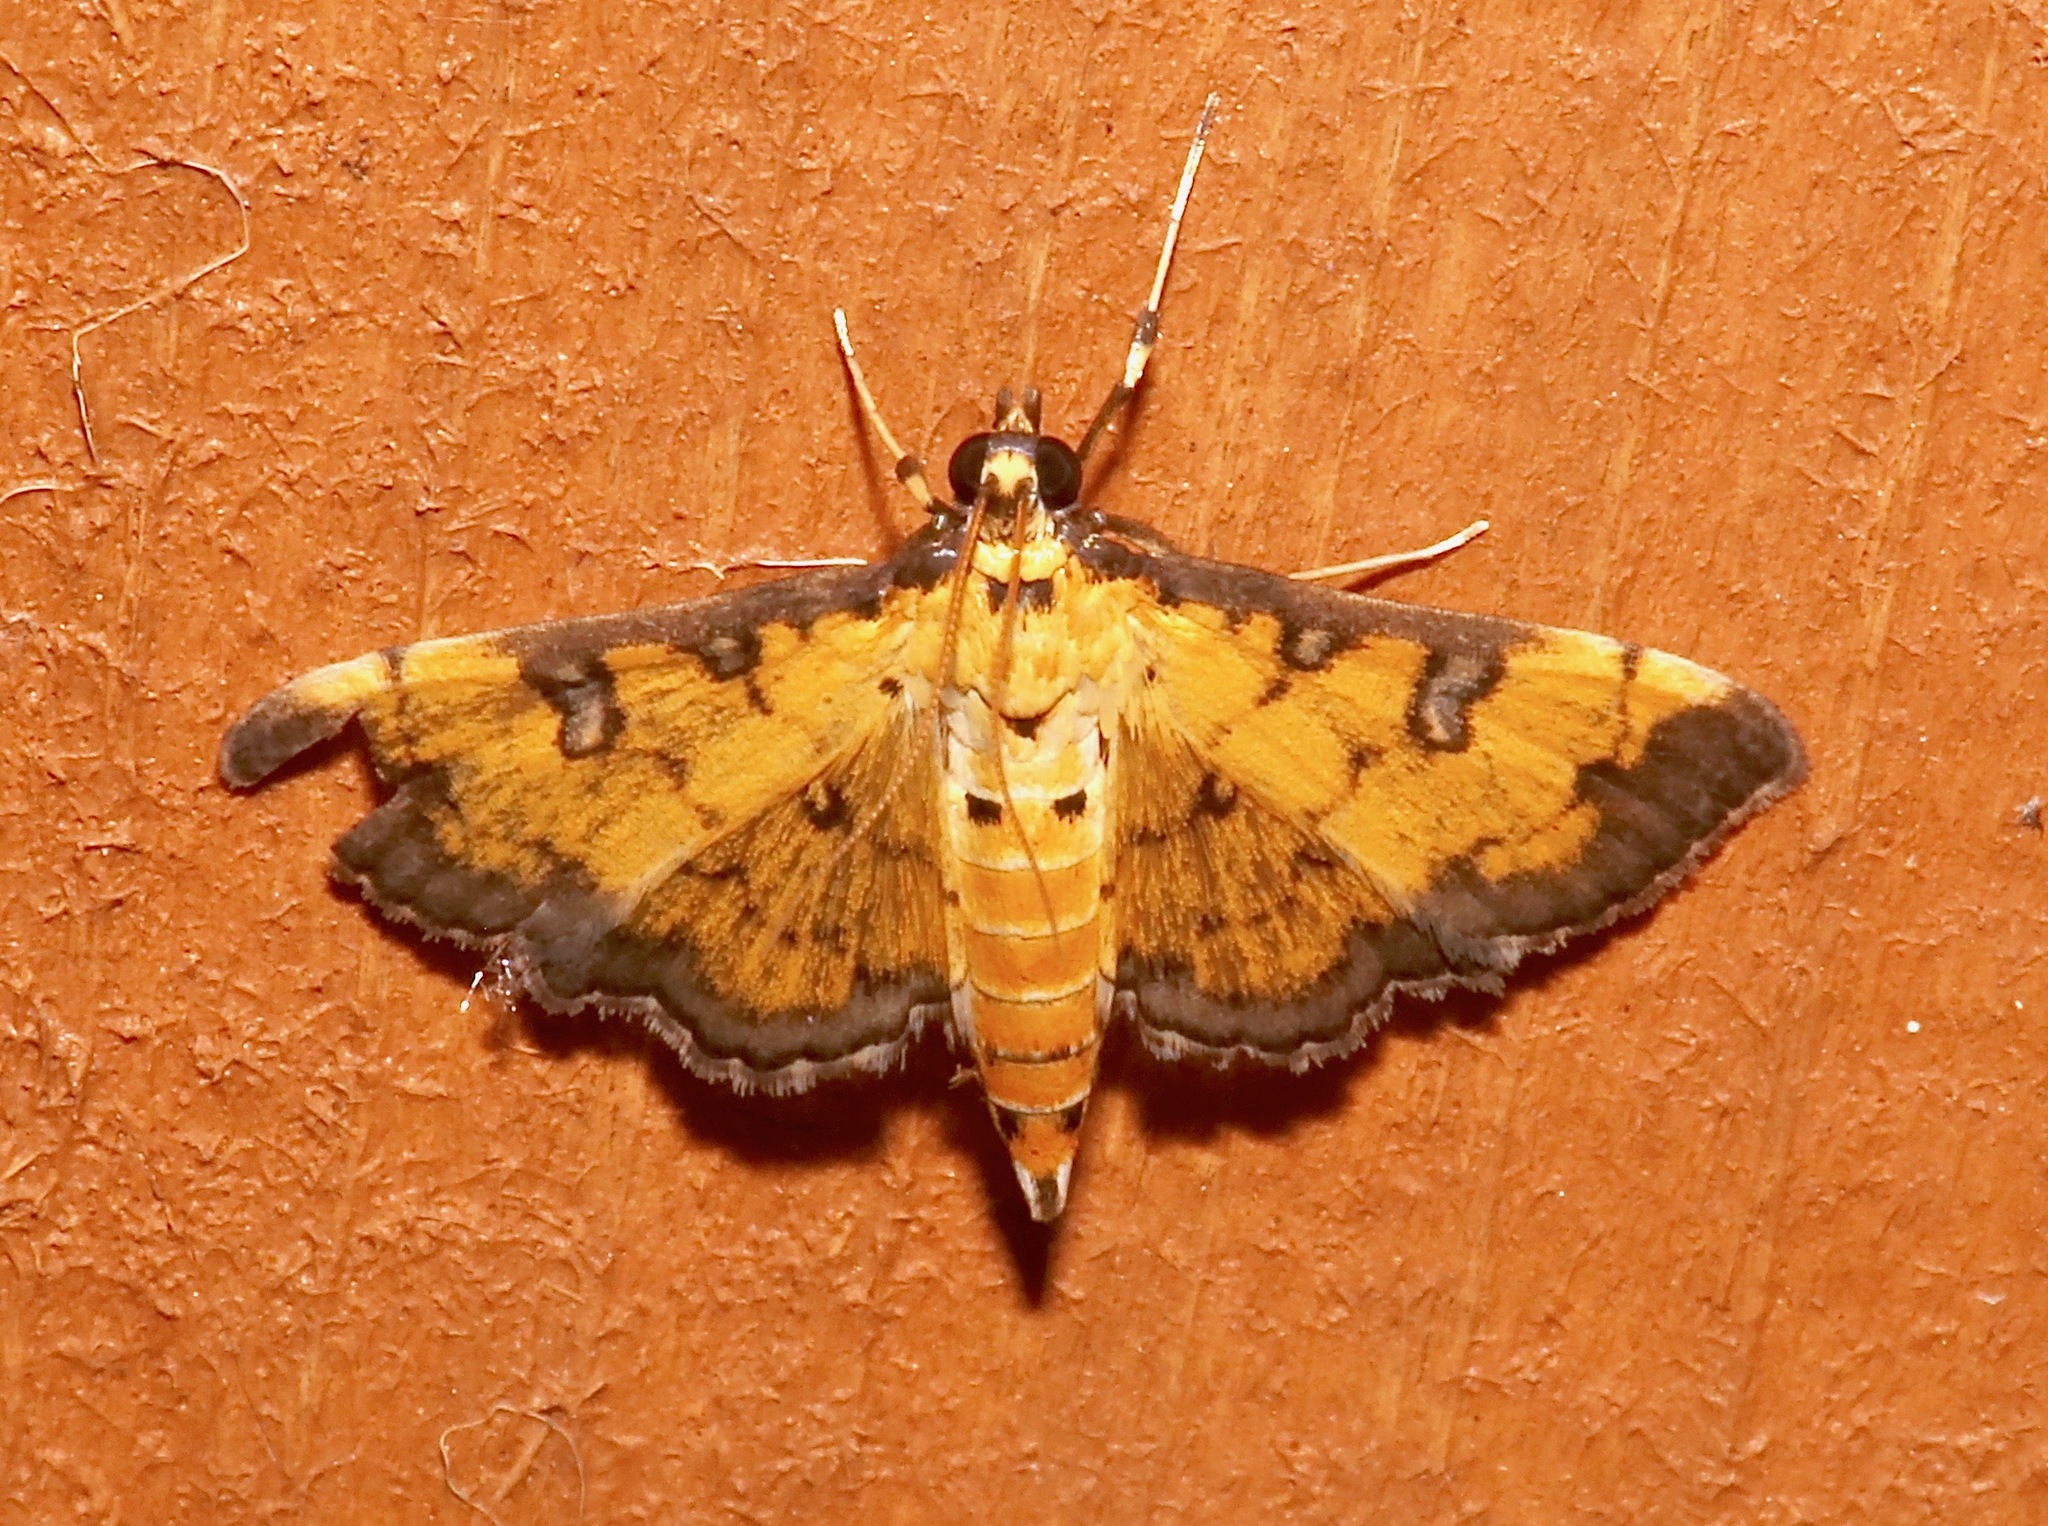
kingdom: Animalia
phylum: Arthropoda
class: Insecta
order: Lepidoptera
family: Crambidae
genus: Ategumia
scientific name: Ategumia ebulealis
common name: Moth
